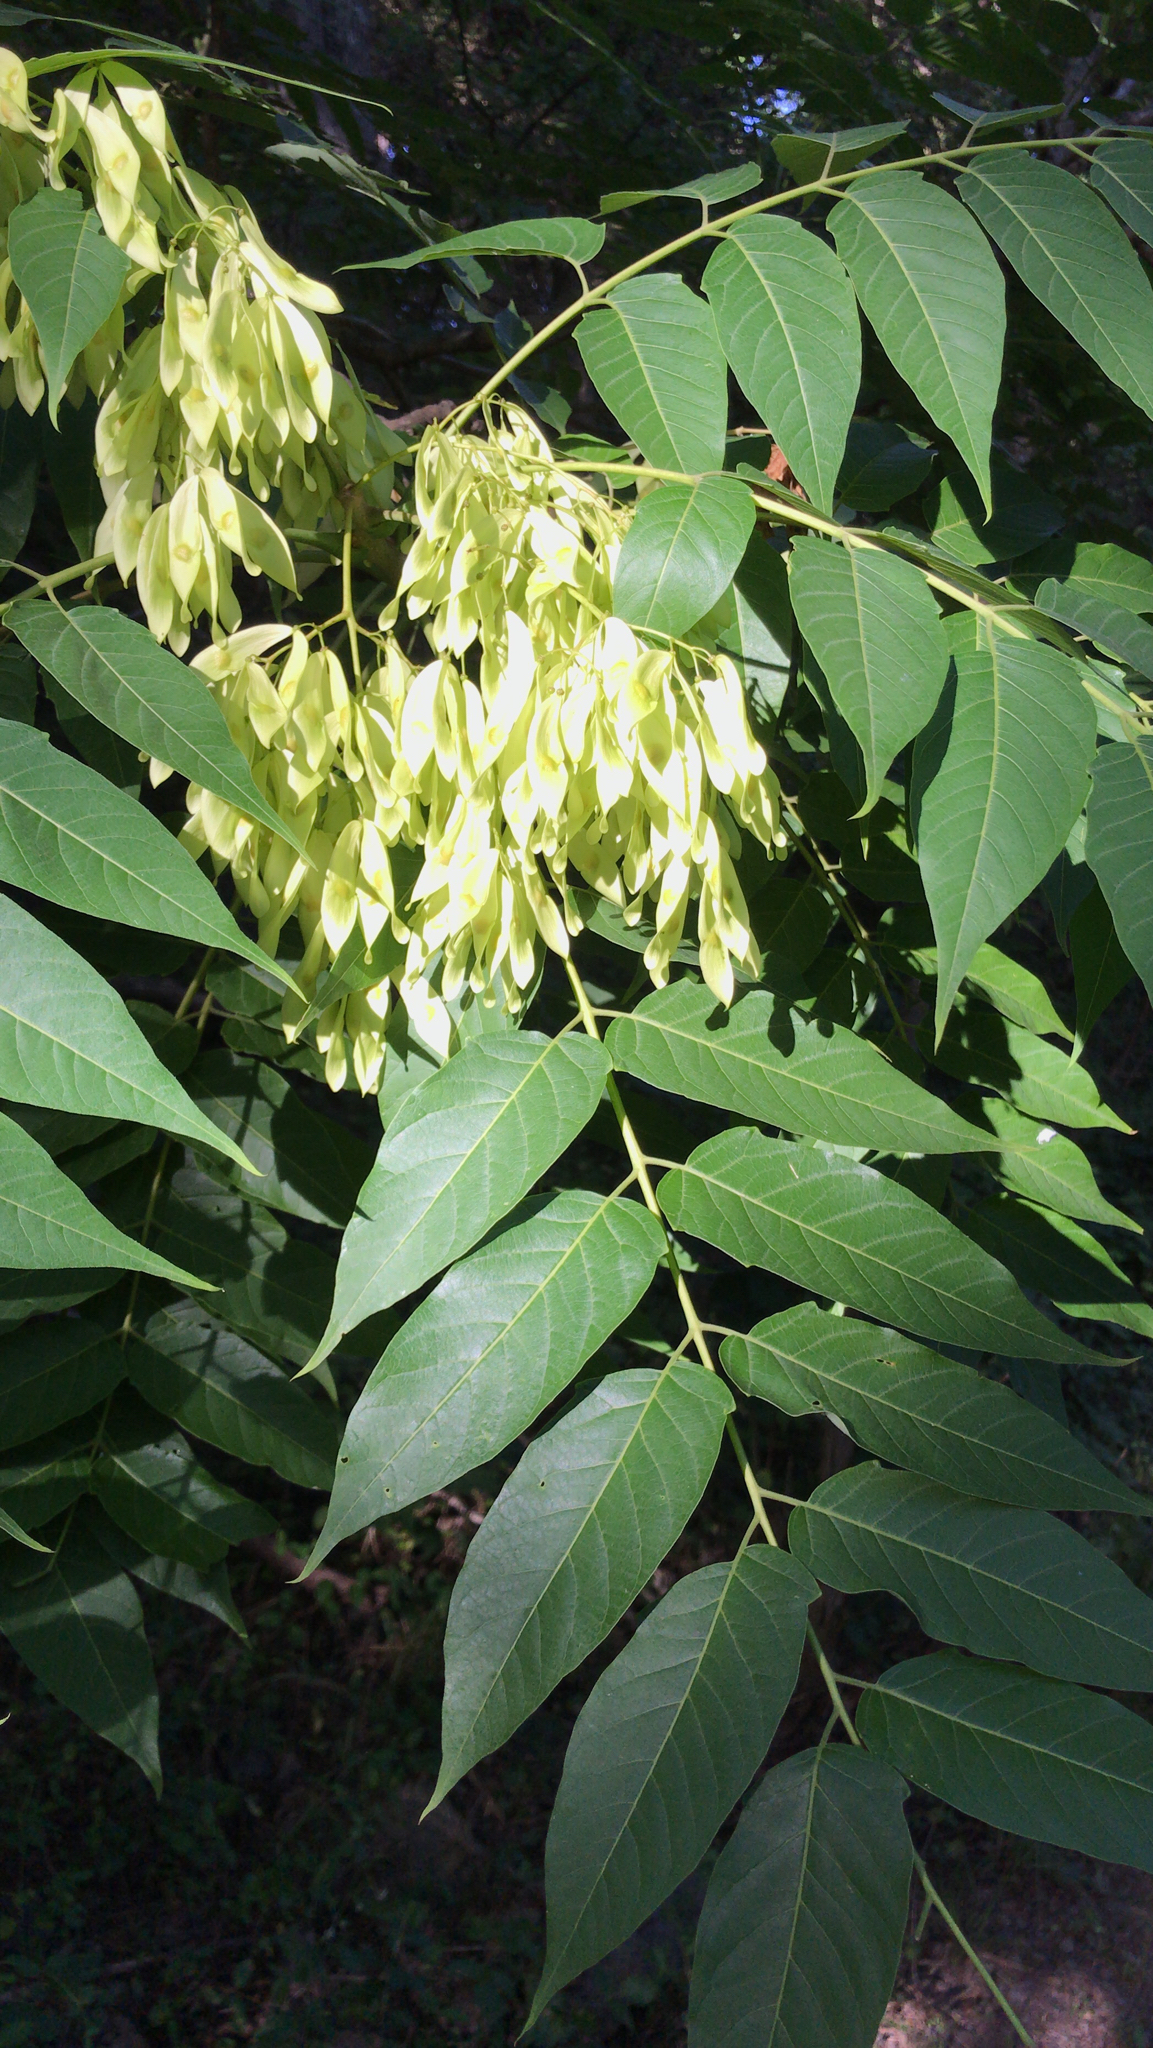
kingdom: Plantae
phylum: Tracheophyta
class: Magnoliopsida
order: Sapindales
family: Simaroubaceae
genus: Ailanthus
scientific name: Ailanthus altissima
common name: Tree-of-heaven
